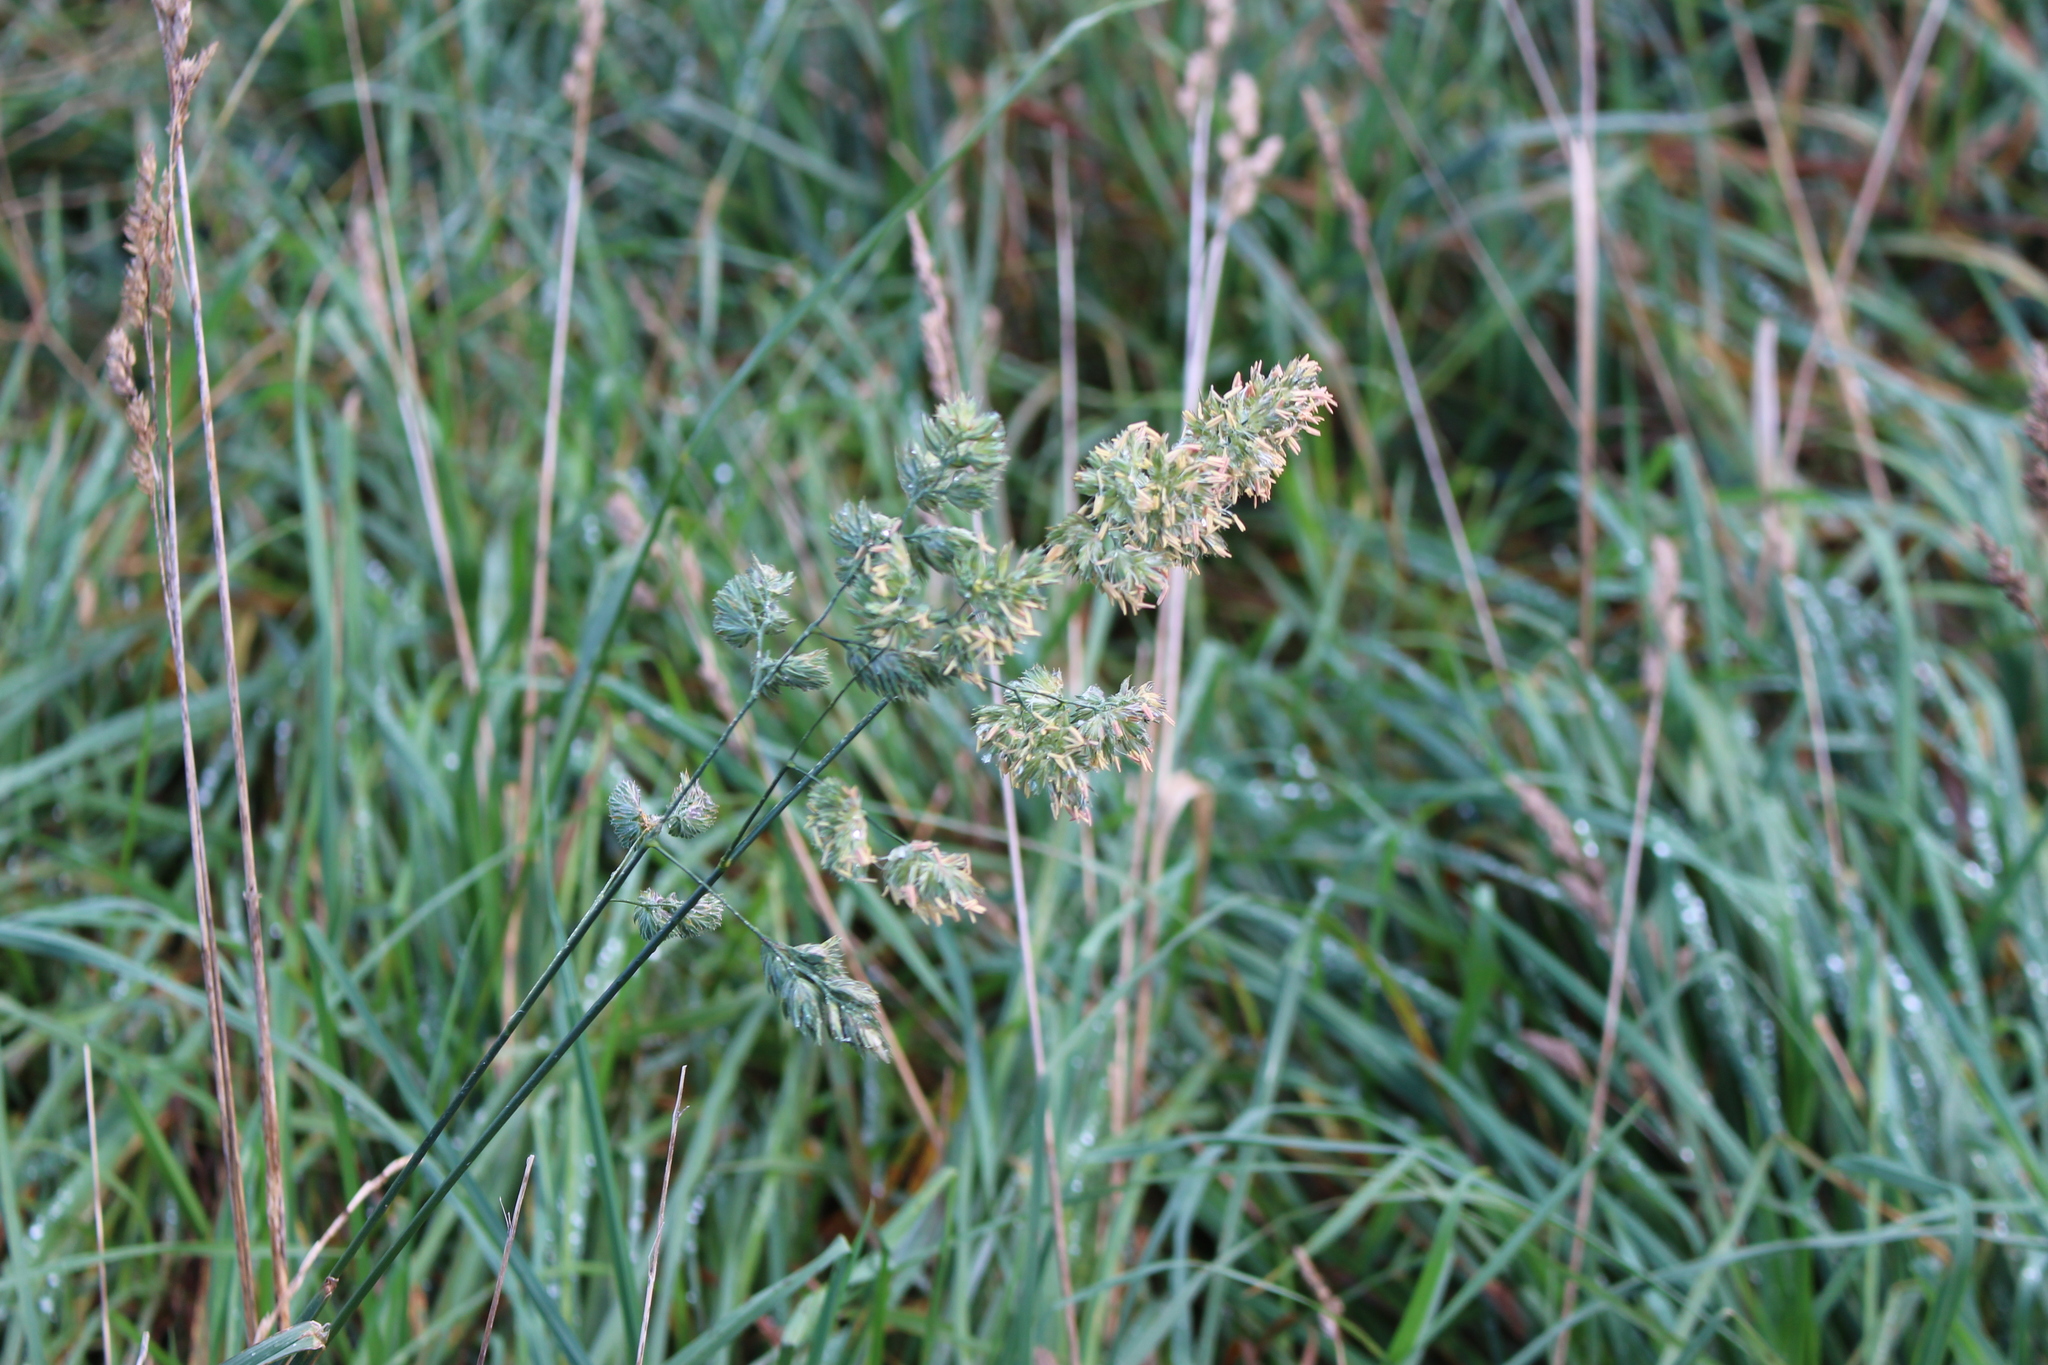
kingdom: Plantae
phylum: Tracheophyta
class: Liliopsida
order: Poales
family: Poaceae
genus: Dactylis
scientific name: Dactylis glomerata
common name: Orchardgrass
